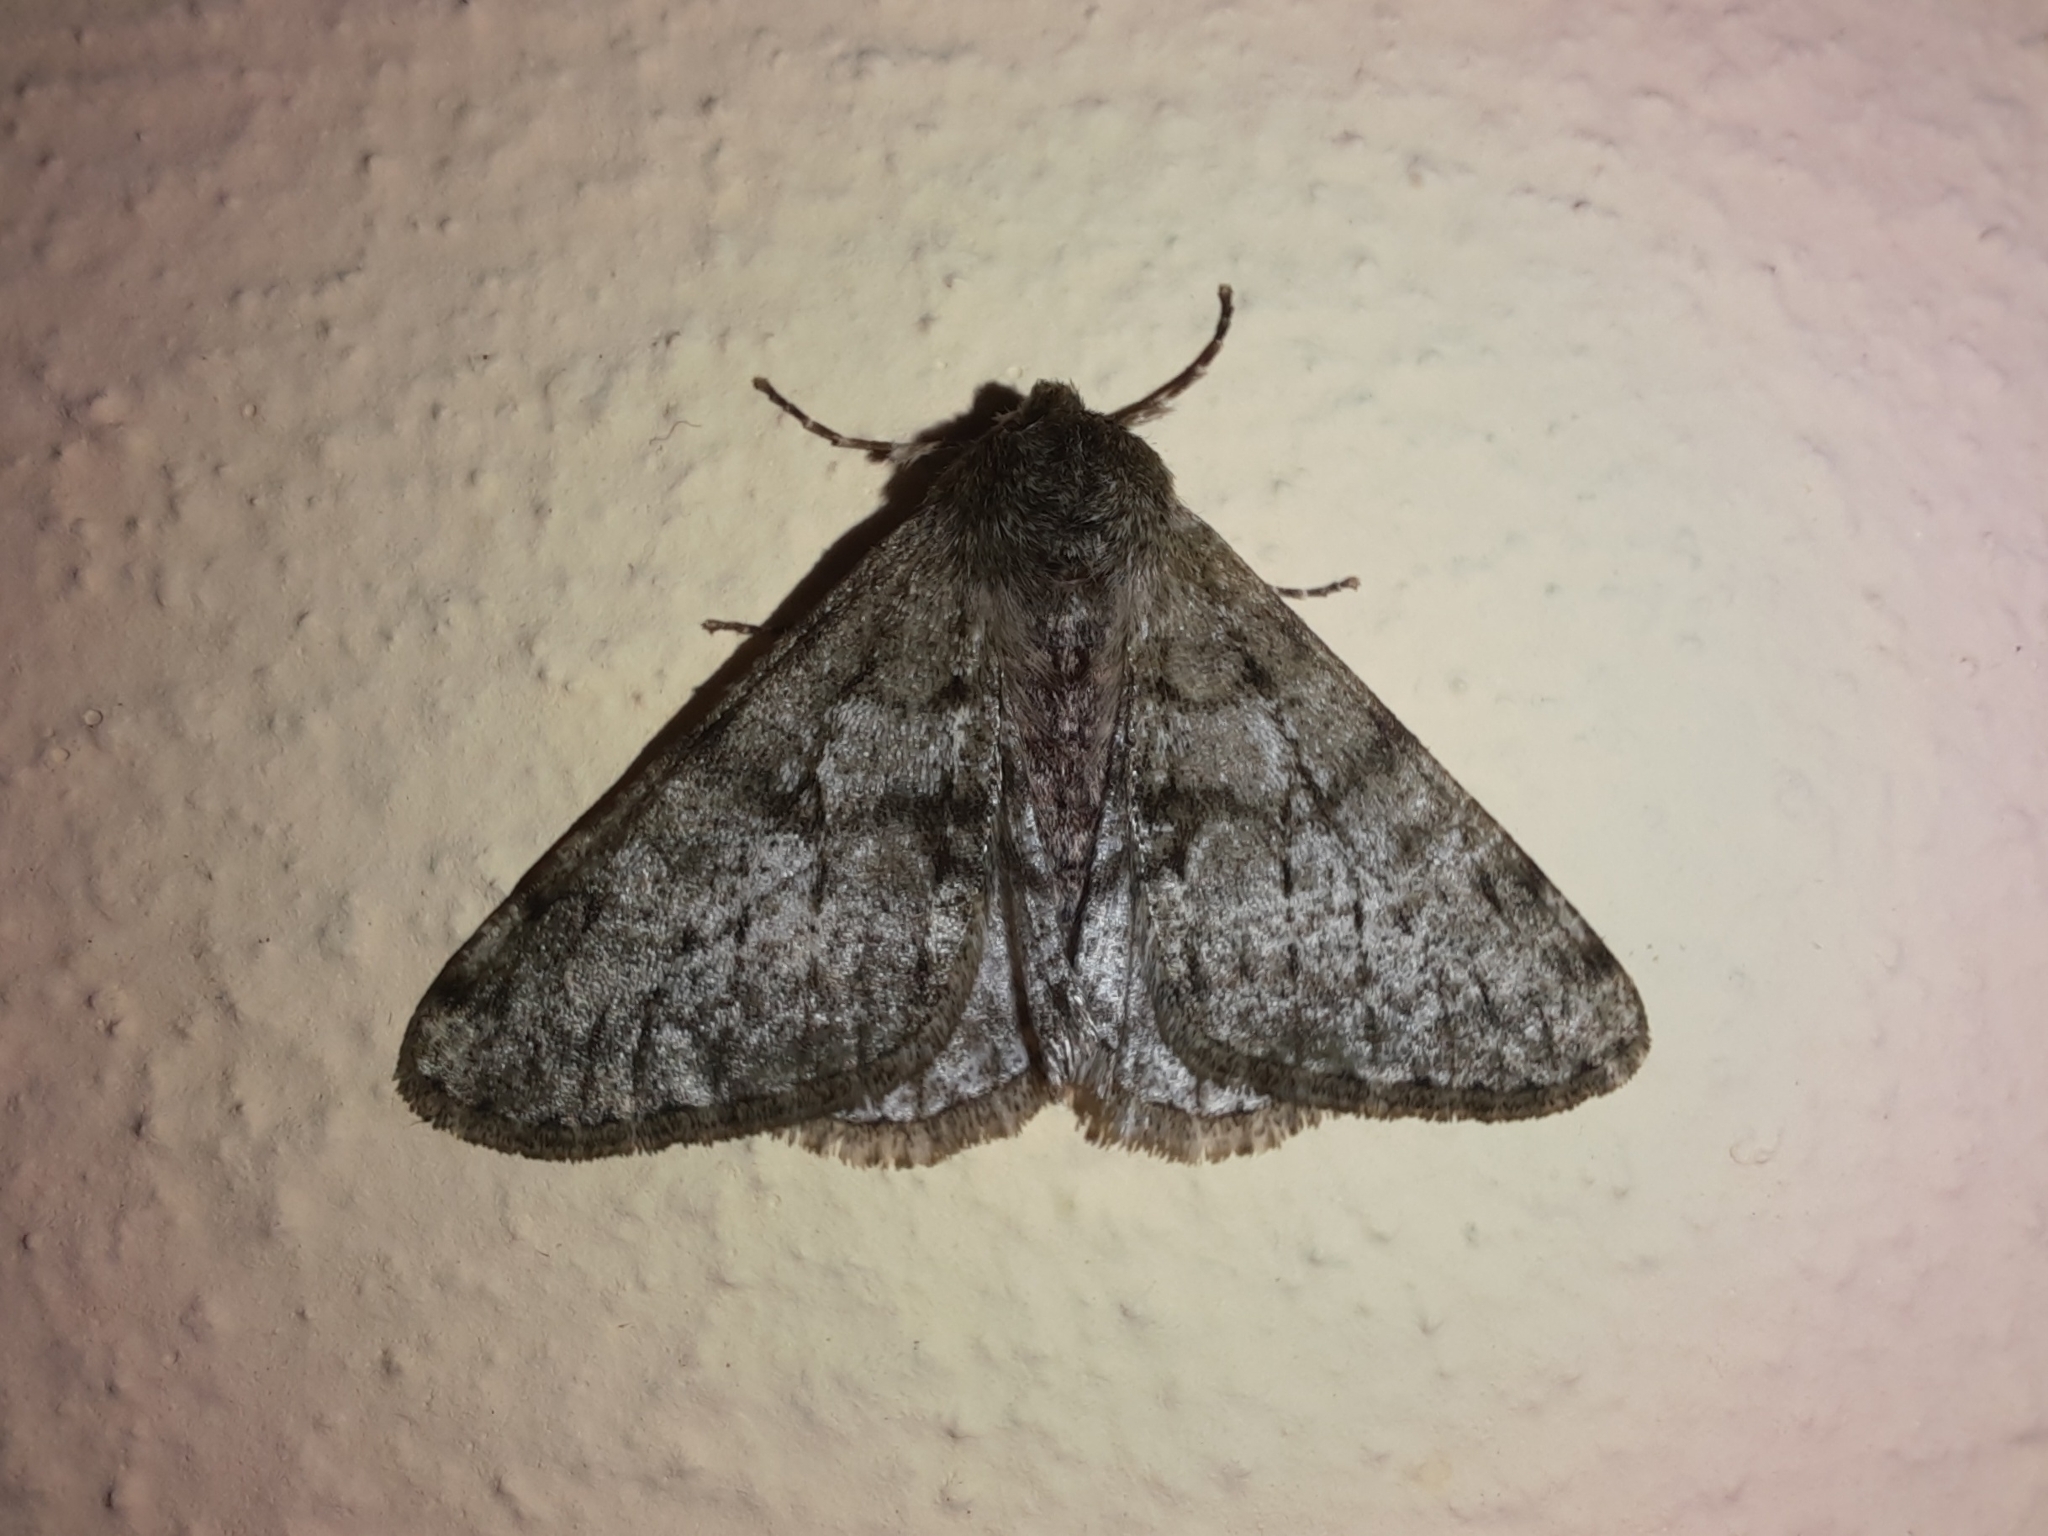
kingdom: Animalia
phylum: Arthropoda
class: Insecta
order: Lepidoptera
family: Geometridae
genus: Phigalia
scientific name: Phigalia pilosaria
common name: Pale brindled beauty
